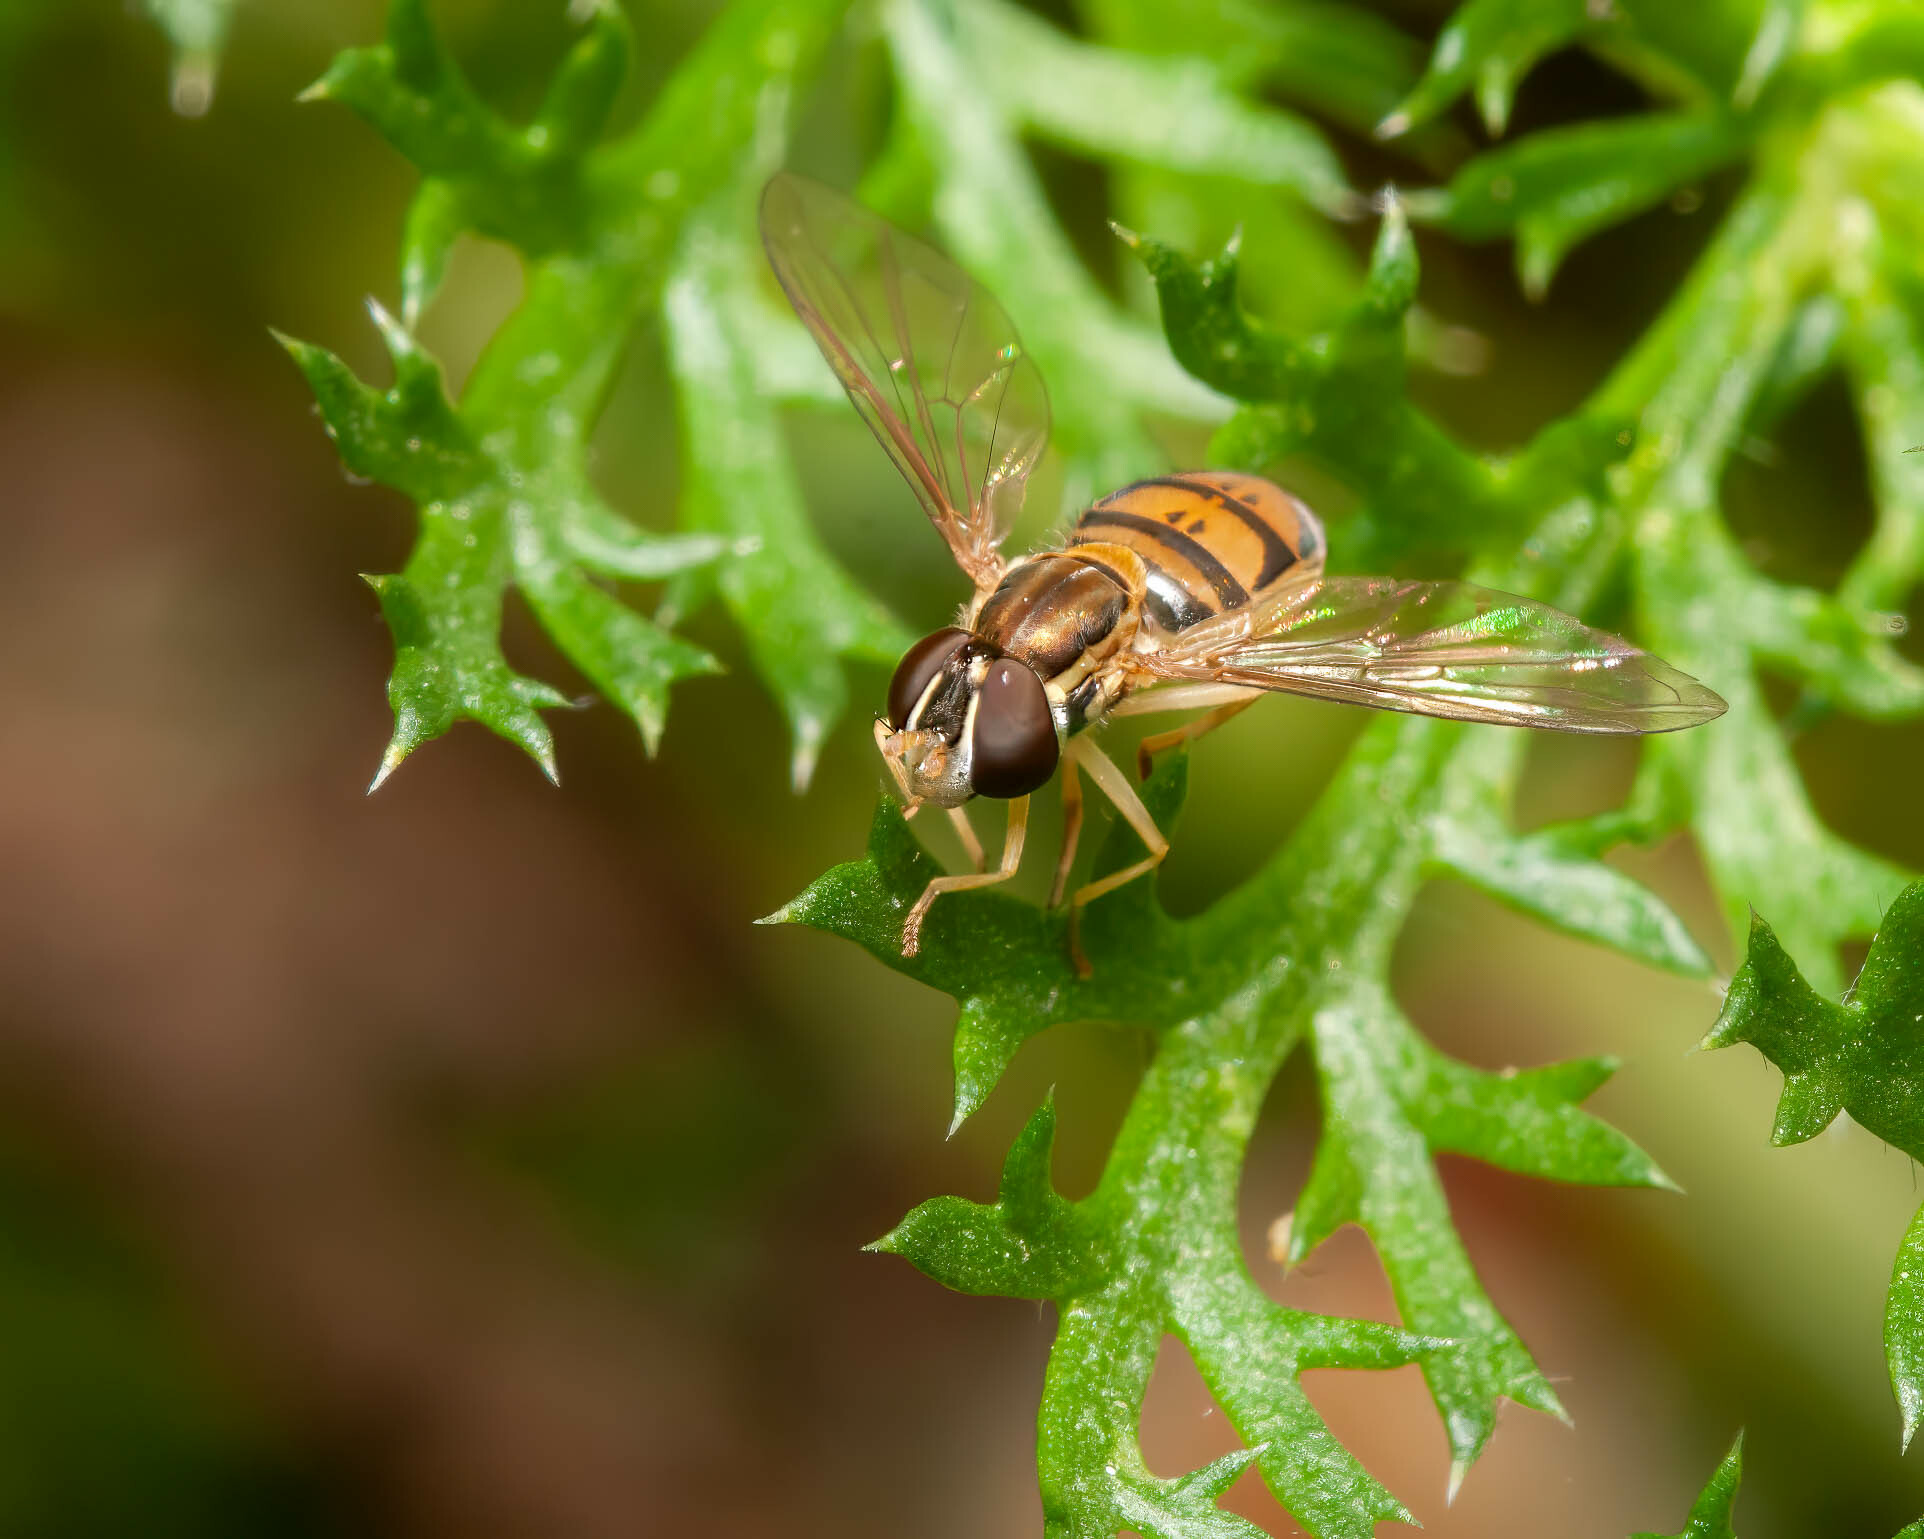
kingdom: Animalia
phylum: Arthropoda
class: Insecta
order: Diptera
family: Syrphidae
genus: Toxomerus
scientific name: Toxomerus marginatus
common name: Syrphid fly
